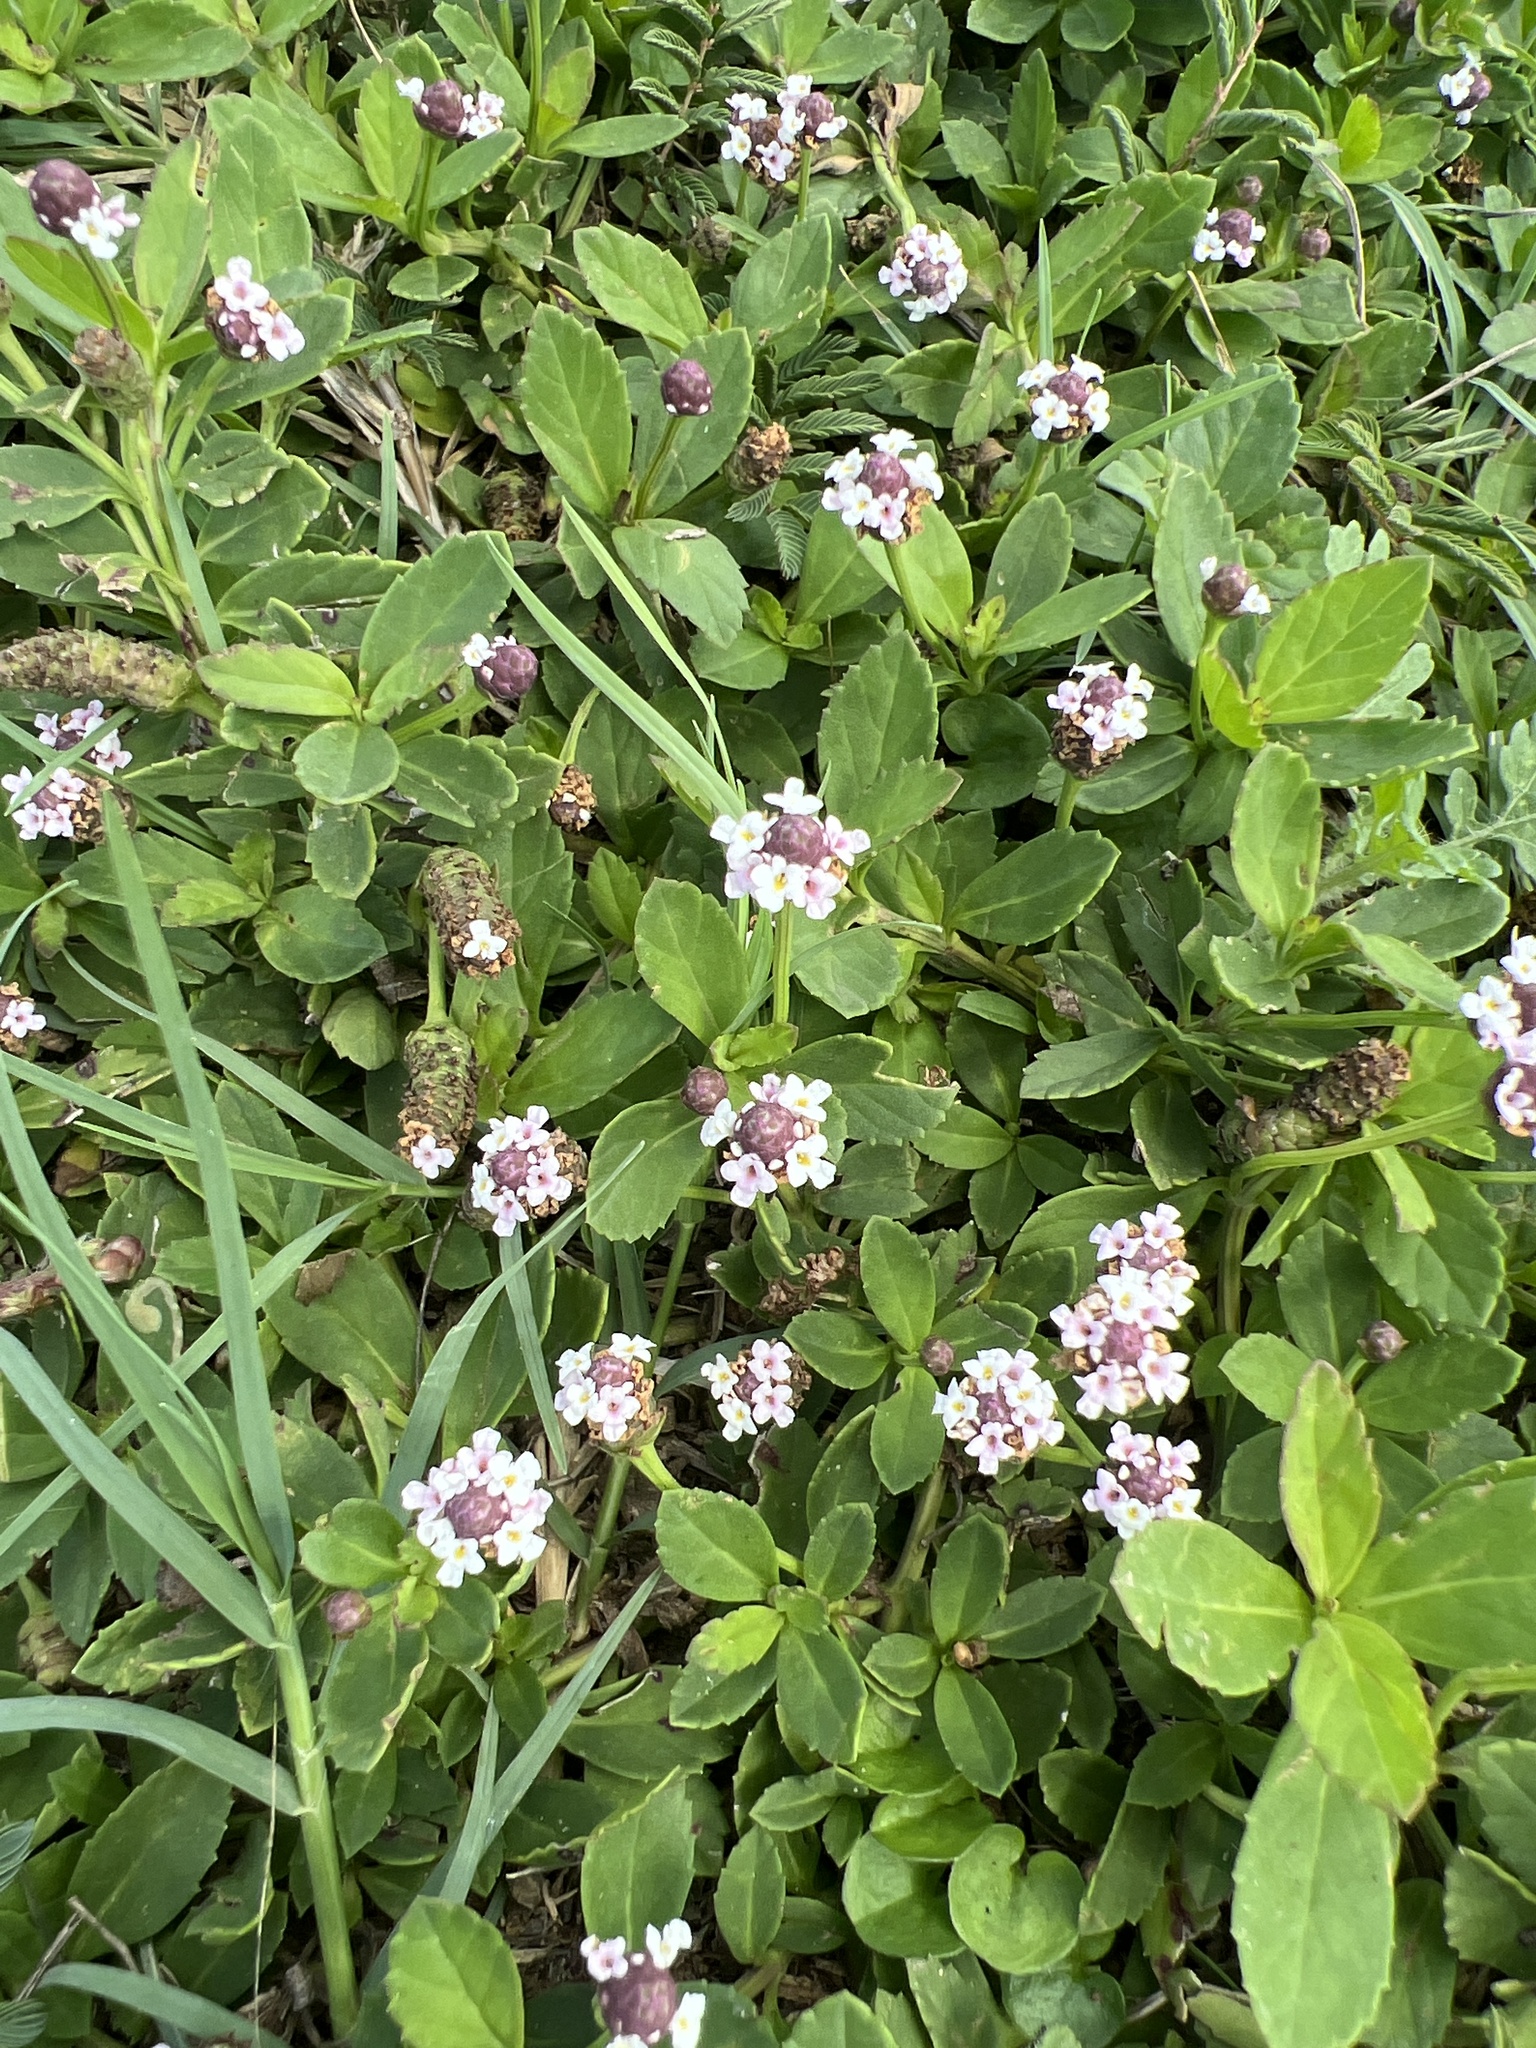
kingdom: Plantae
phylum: Tracheophyta
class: Magnoliopsida
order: Lamiales
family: Verbenaceae
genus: Phyla
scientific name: Phyla nodiflora
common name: Frogfruit
